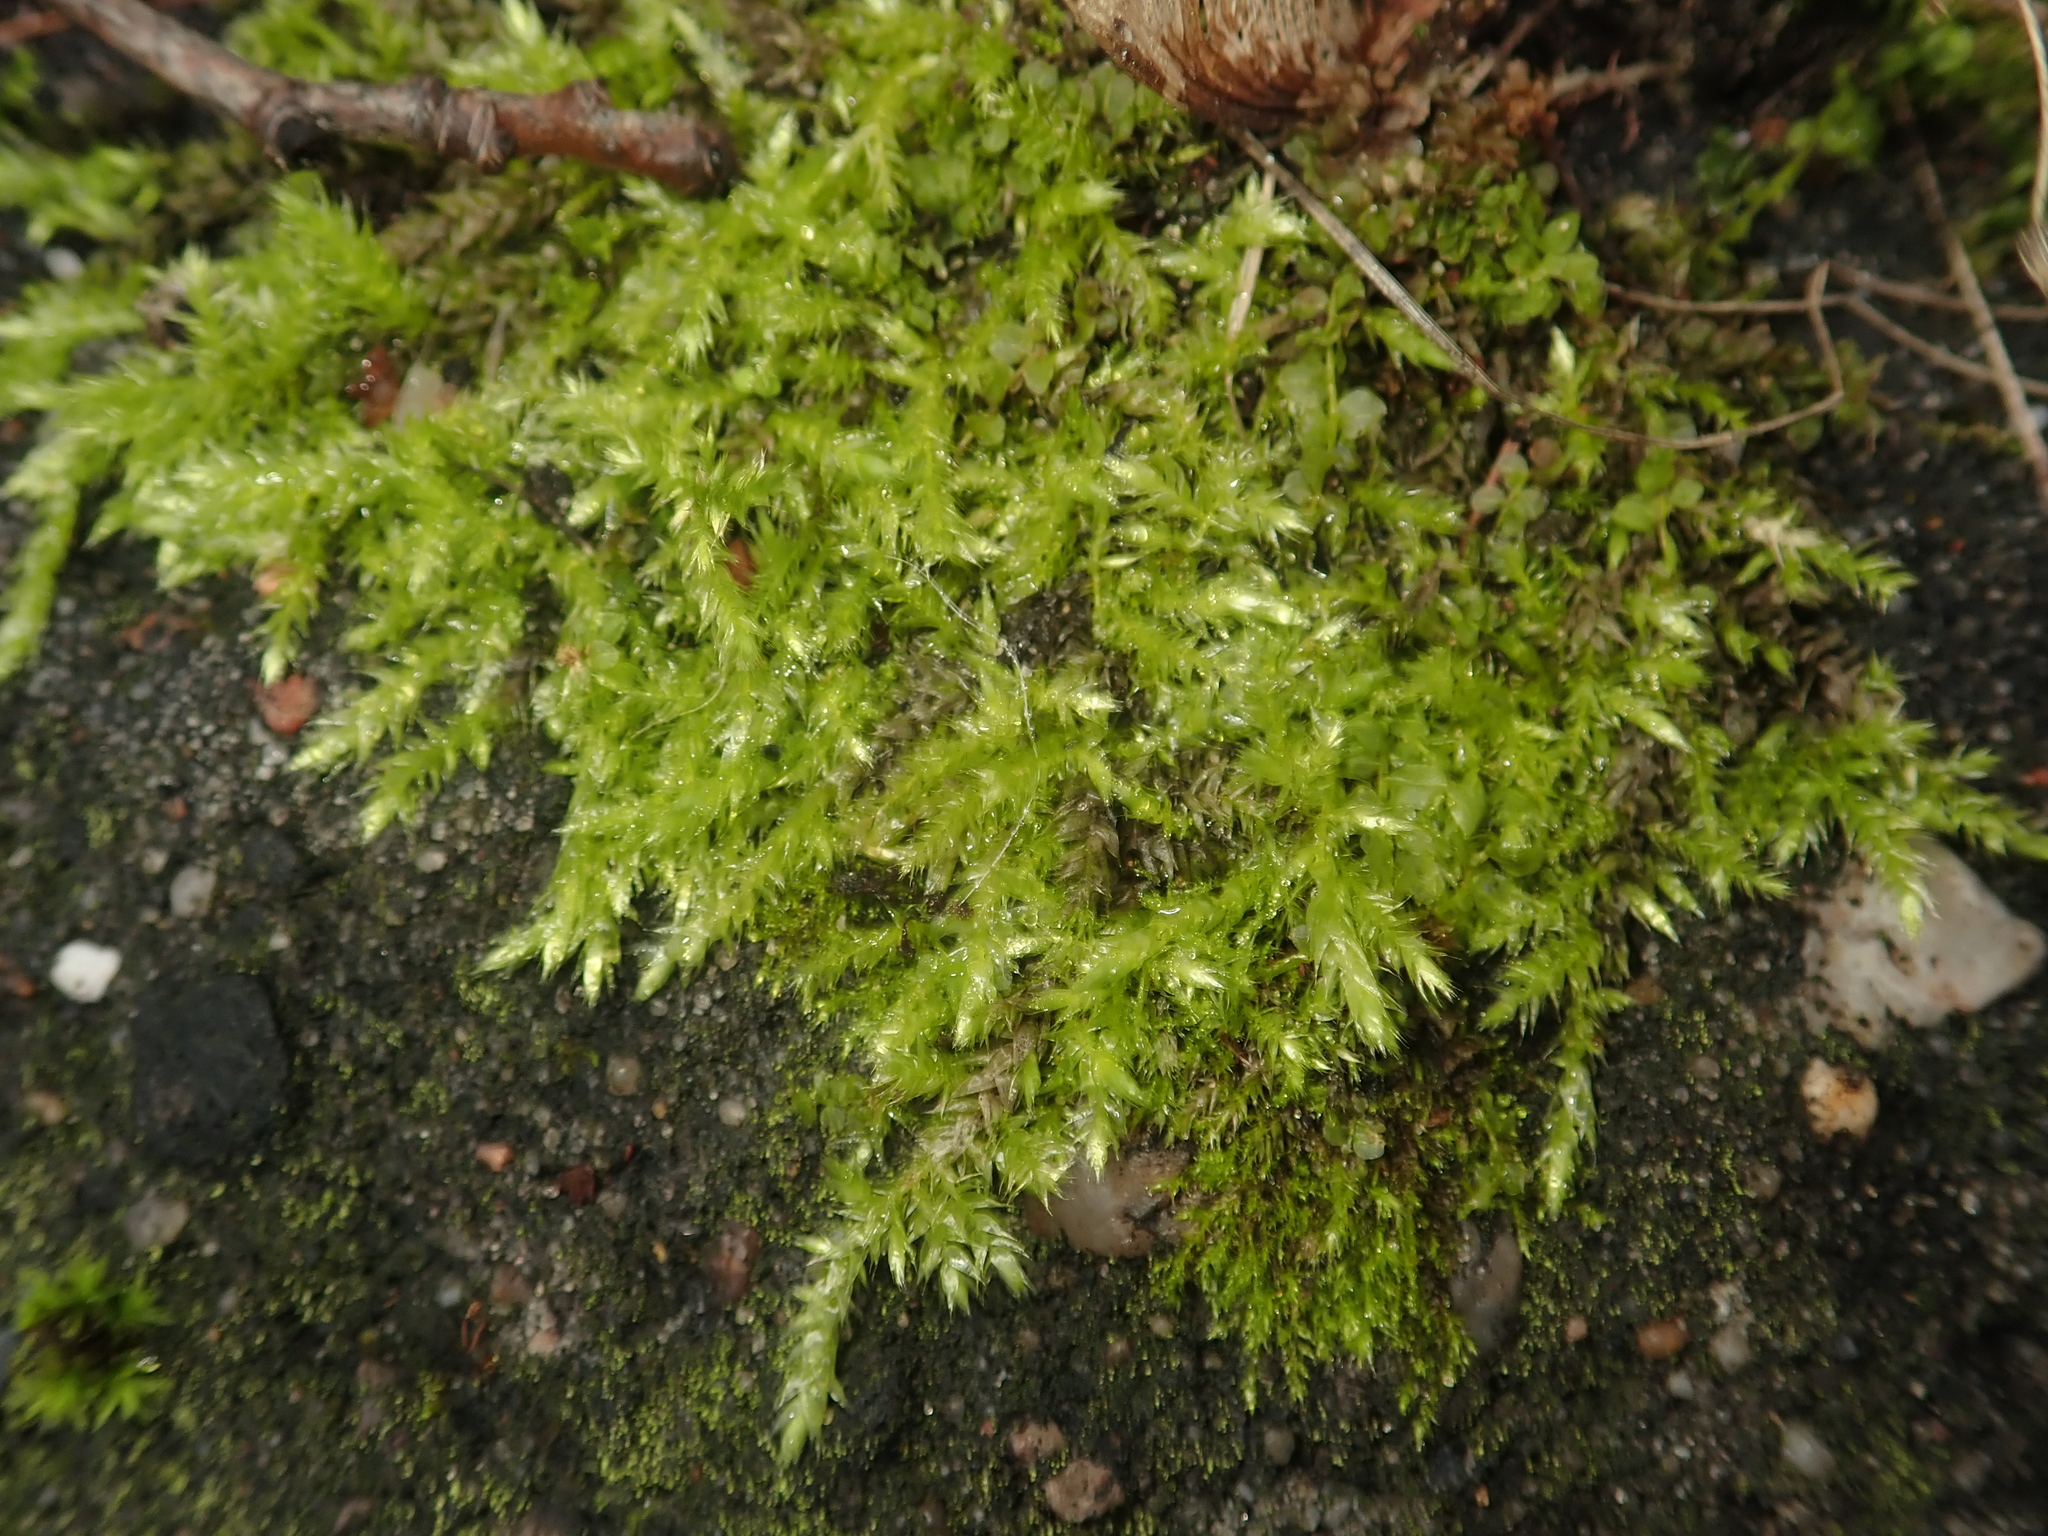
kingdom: Plantae
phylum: Bryophyta
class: Bryopsida
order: Hypnales
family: Brachytheciaceae
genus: Brachythecium
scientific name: Brachythecium rutabulum
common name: Rough-stalked feather-moss
